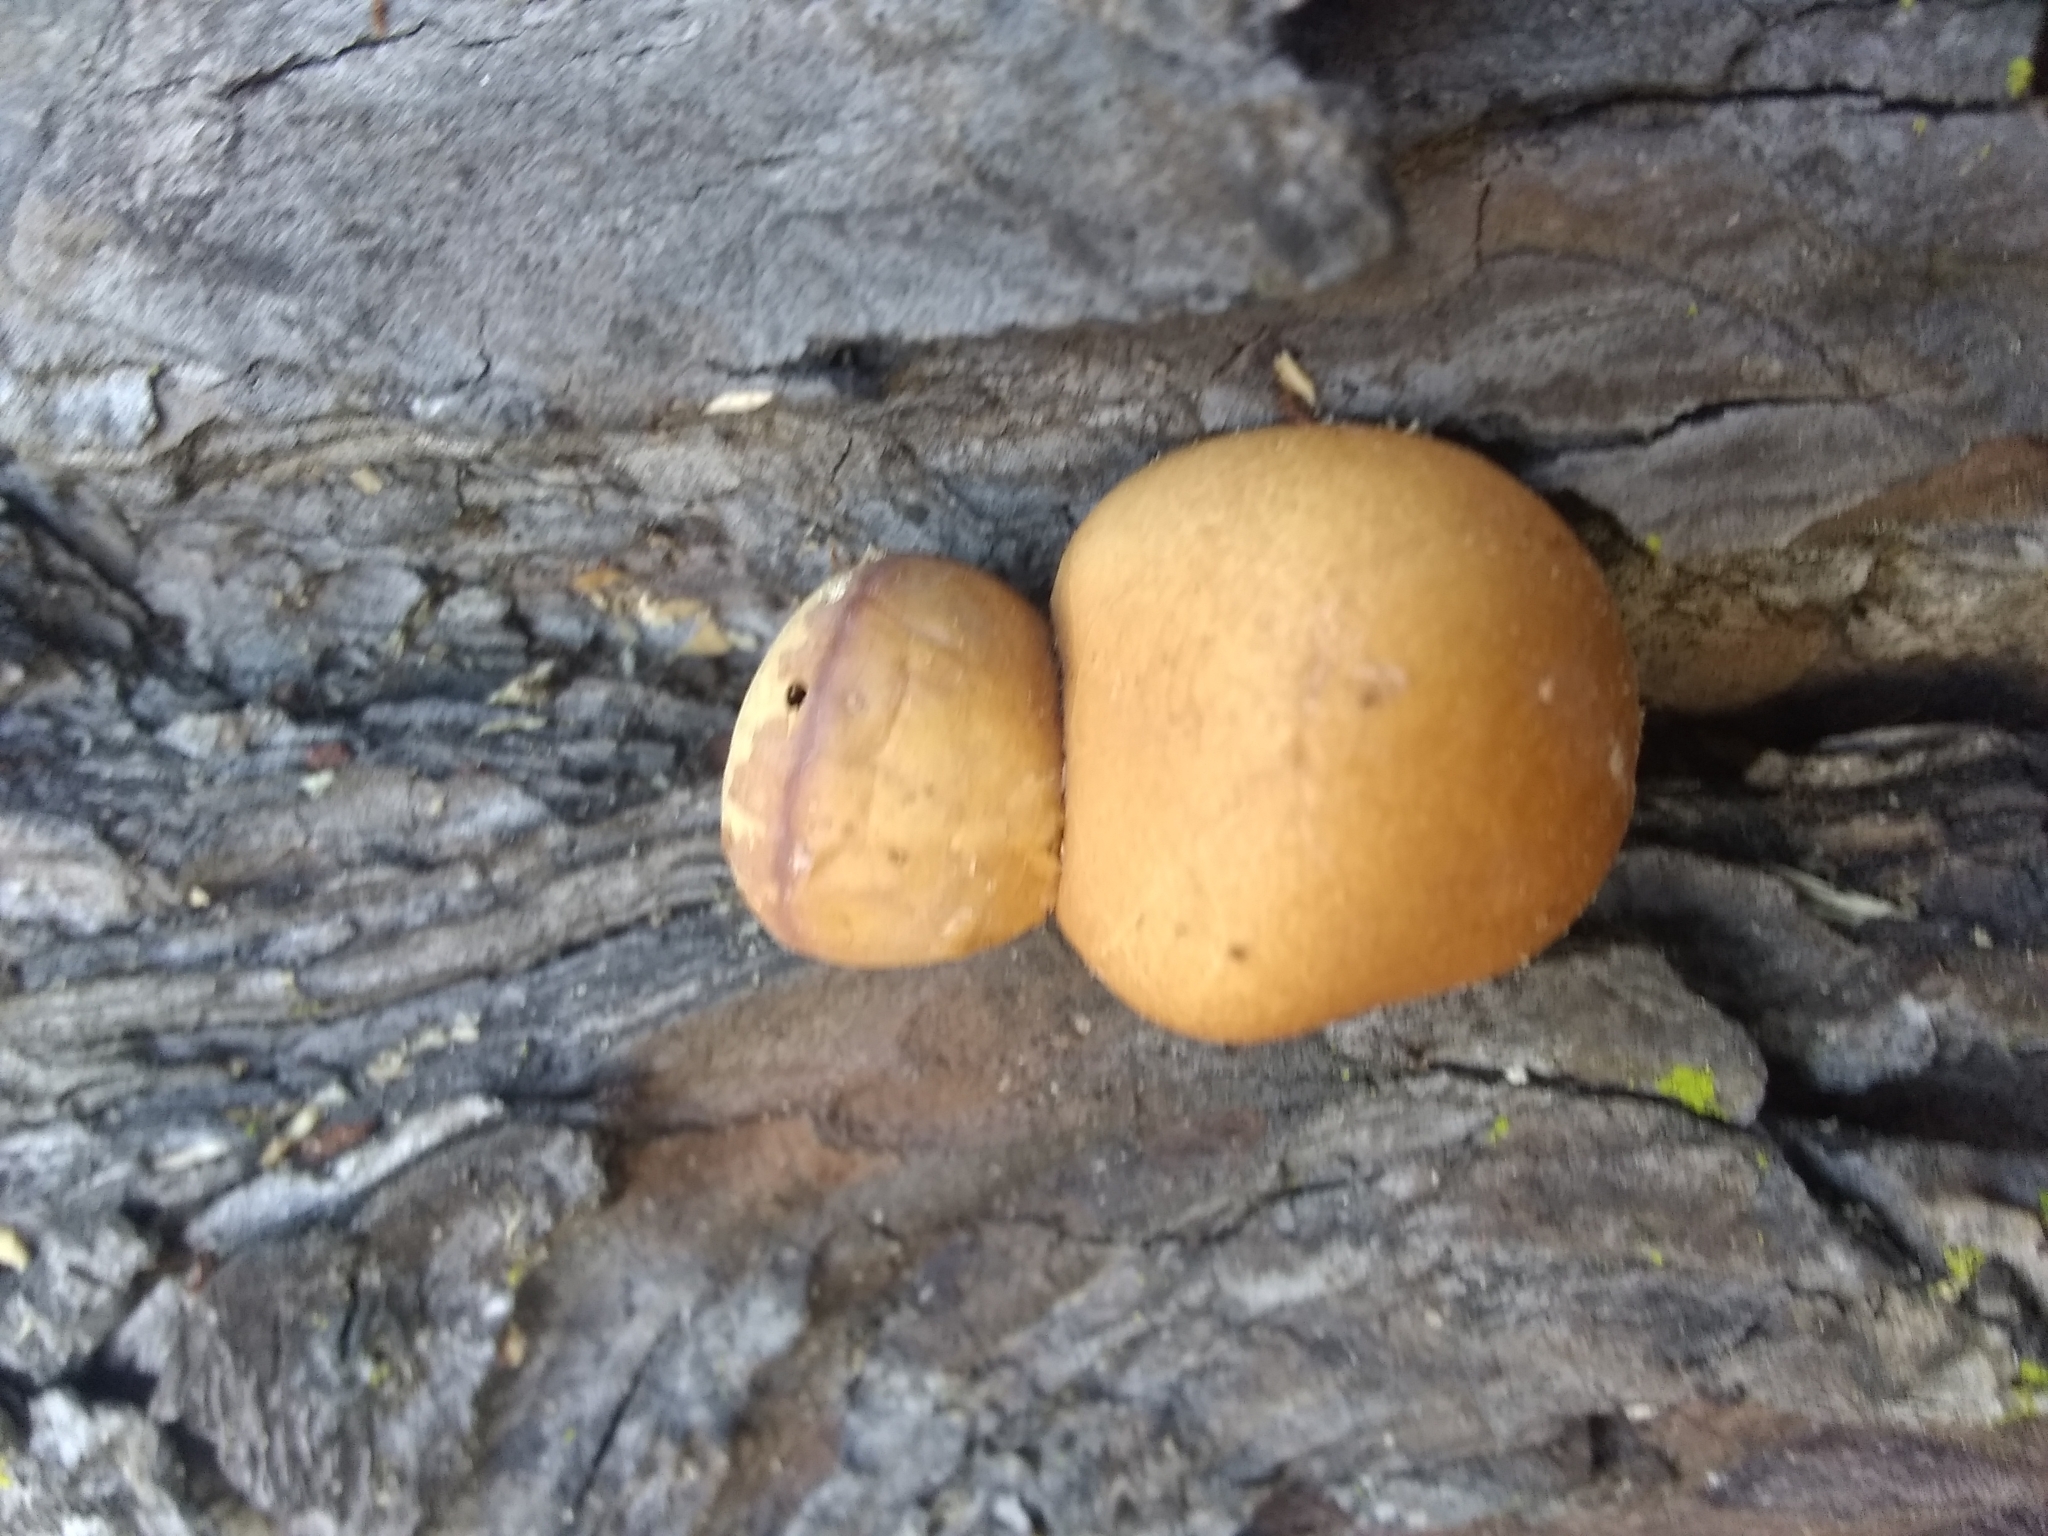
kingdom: Fungi
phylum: Basidiomycota
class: Agaricomycetes
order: Polyporales
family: Polyporaceae
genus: Cryptoporus
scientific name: Cryptoporus volvatus
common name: Veiled polypore
